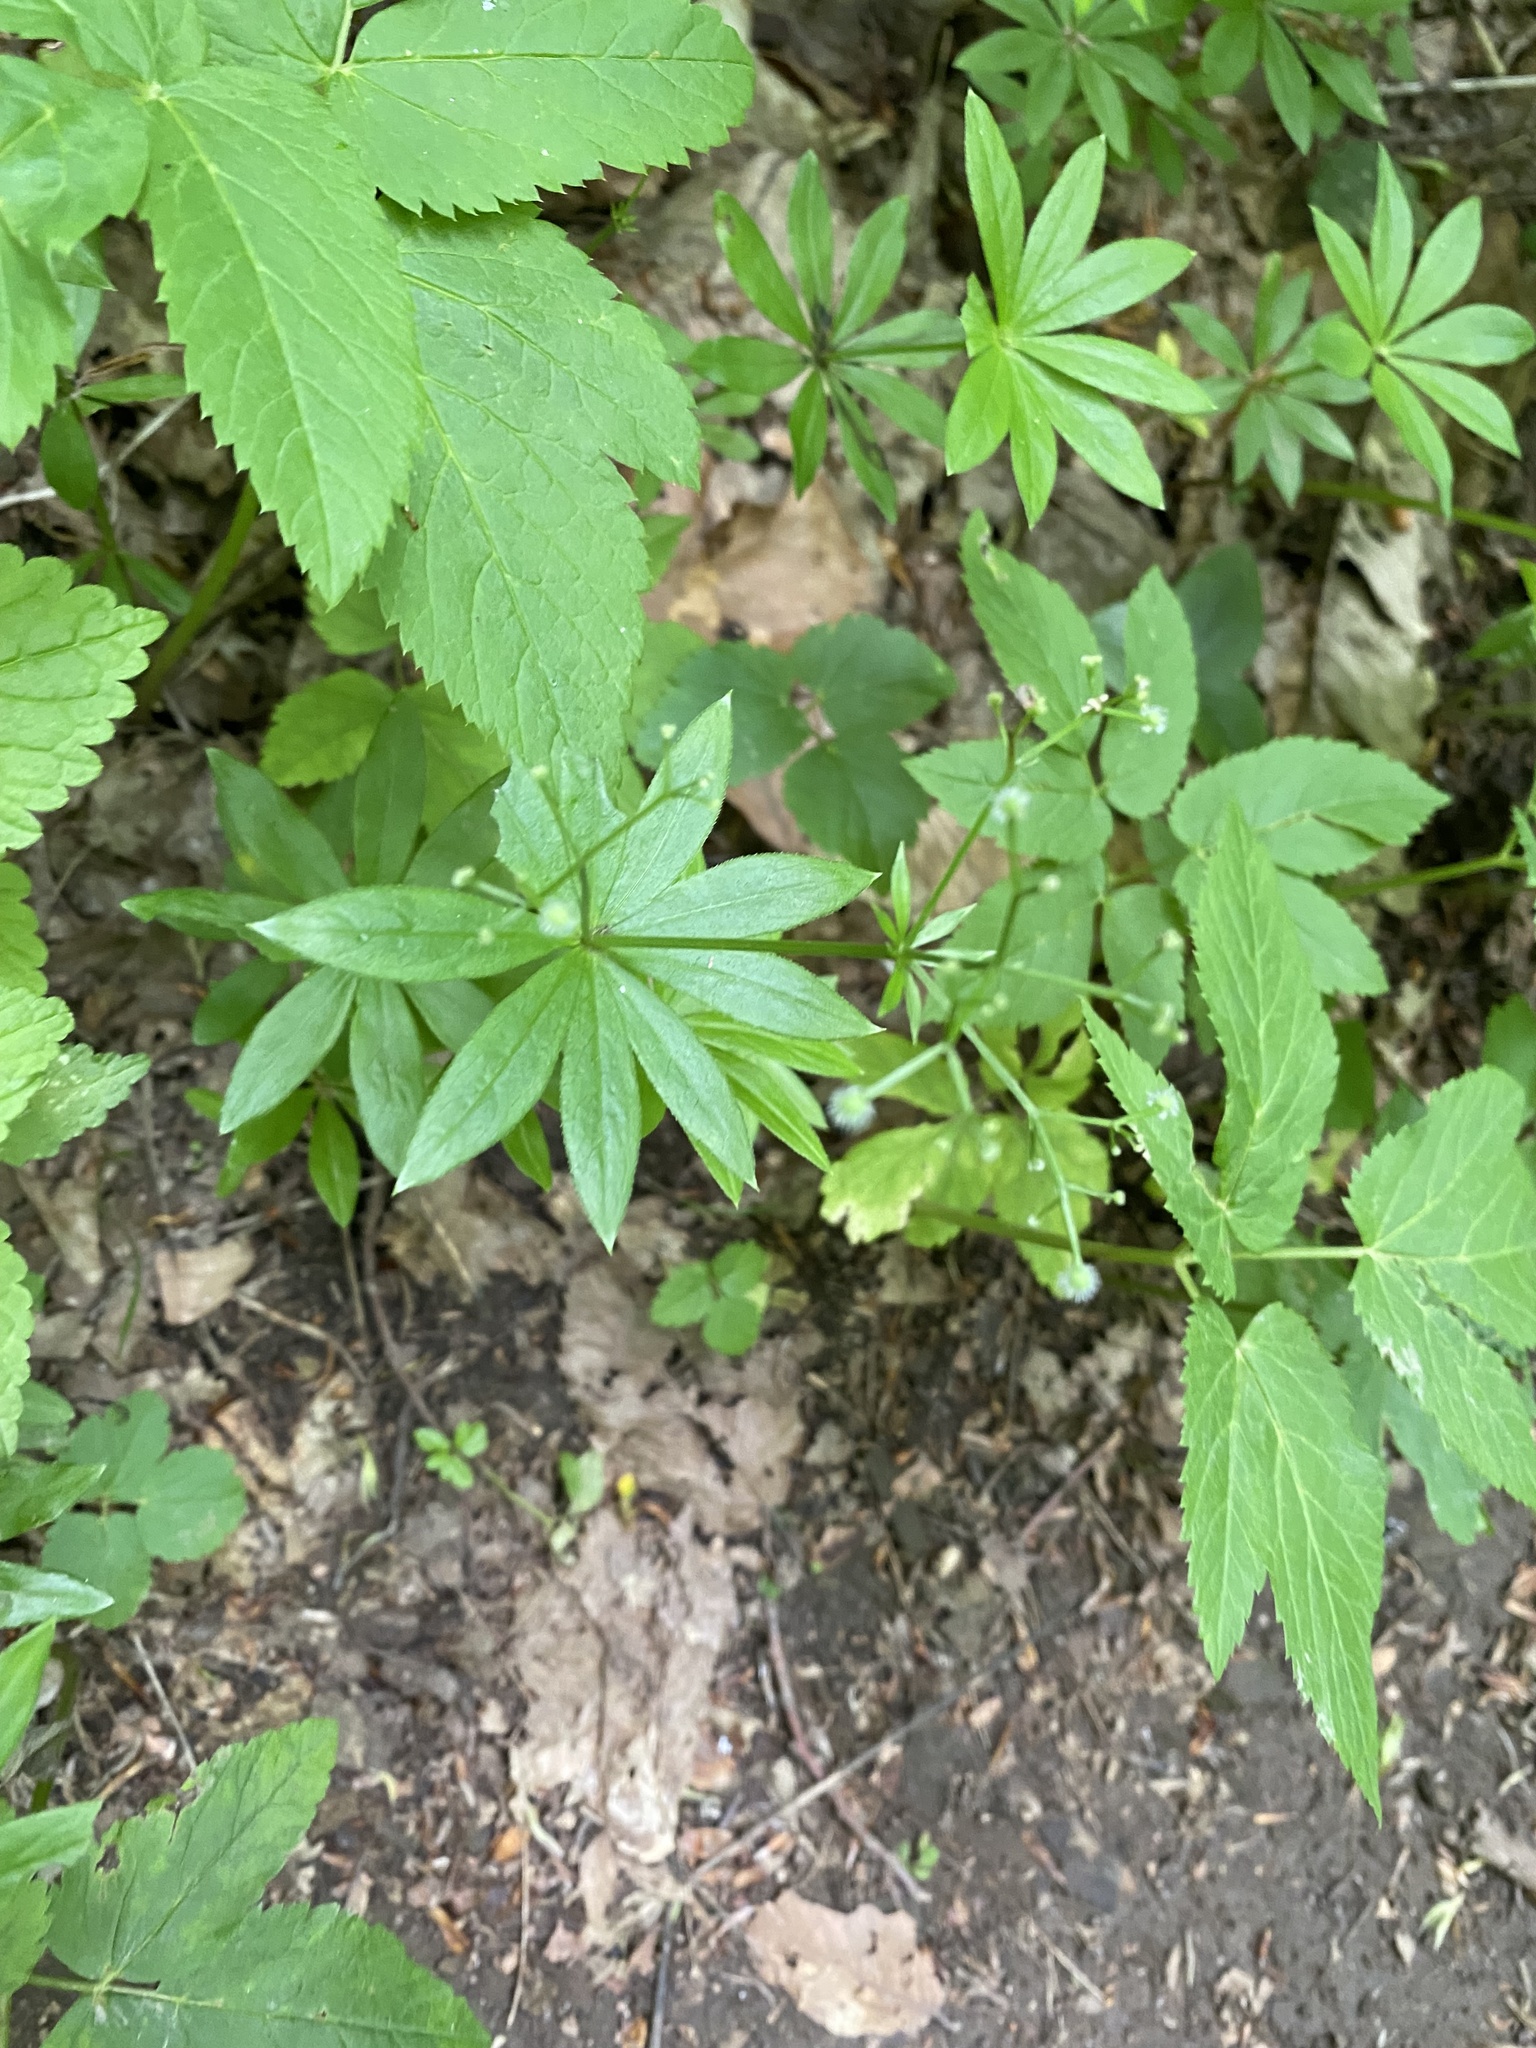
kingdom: Plantae
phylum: Tracheophyta
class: Magnoliopsida
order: Gentianales
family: Rubiaceae
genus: Galium
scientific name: Galium odoratum
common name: Sweet woodruff
